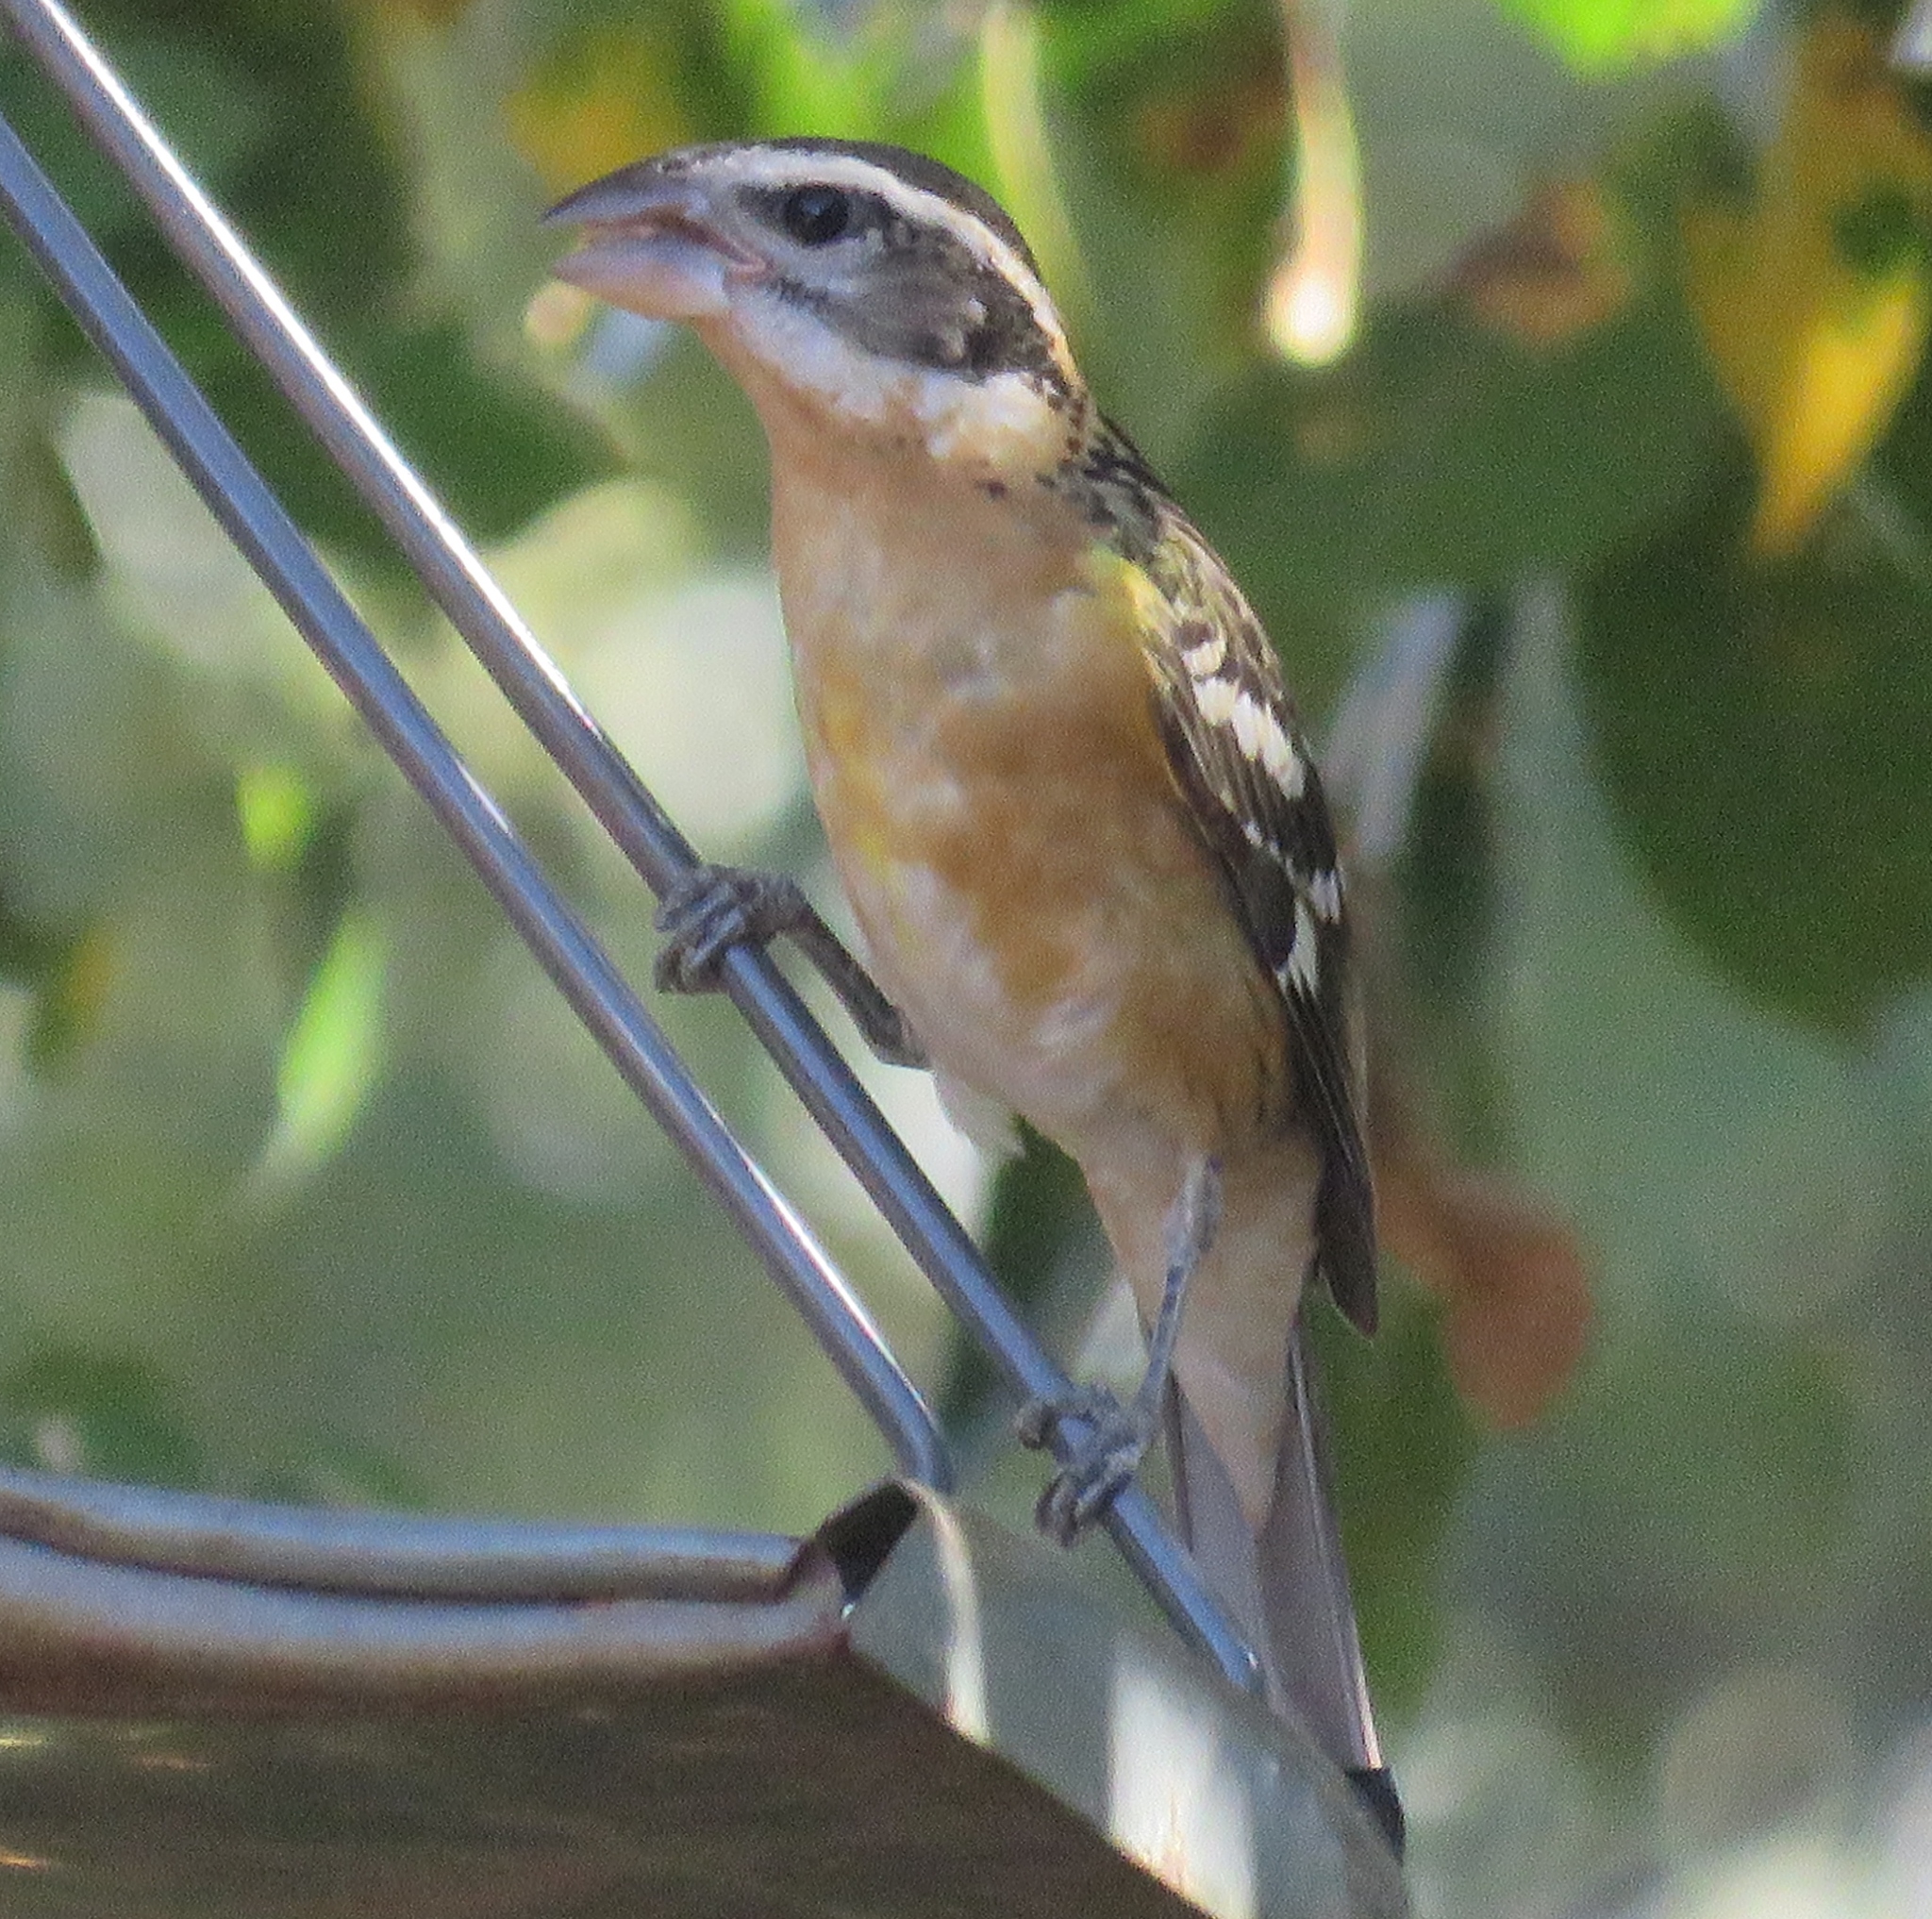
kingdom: Animalia
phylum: Chordata
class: Aves
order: Passeriformes
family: Cardinalidae
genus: Pheucticus
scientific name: Pheucticus melanocephalus
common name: Black-headed grosbeak
